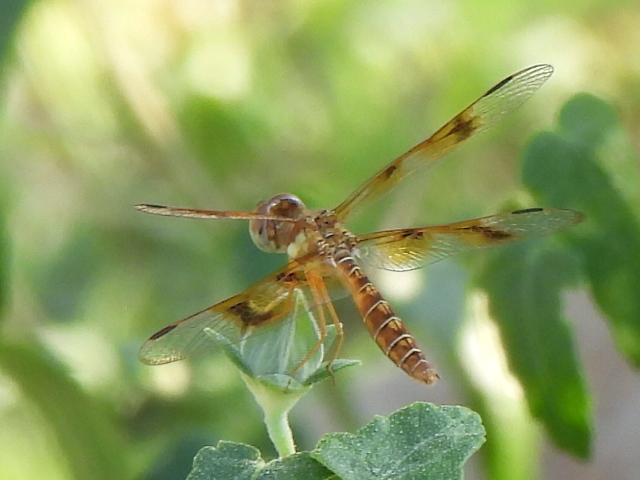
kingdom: Animalia
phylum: Arthropoda
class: Insecta
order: Odonata
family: Libellulidae
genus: Perithemis
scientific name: Perithemis tenera
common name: Eastern amberwing
